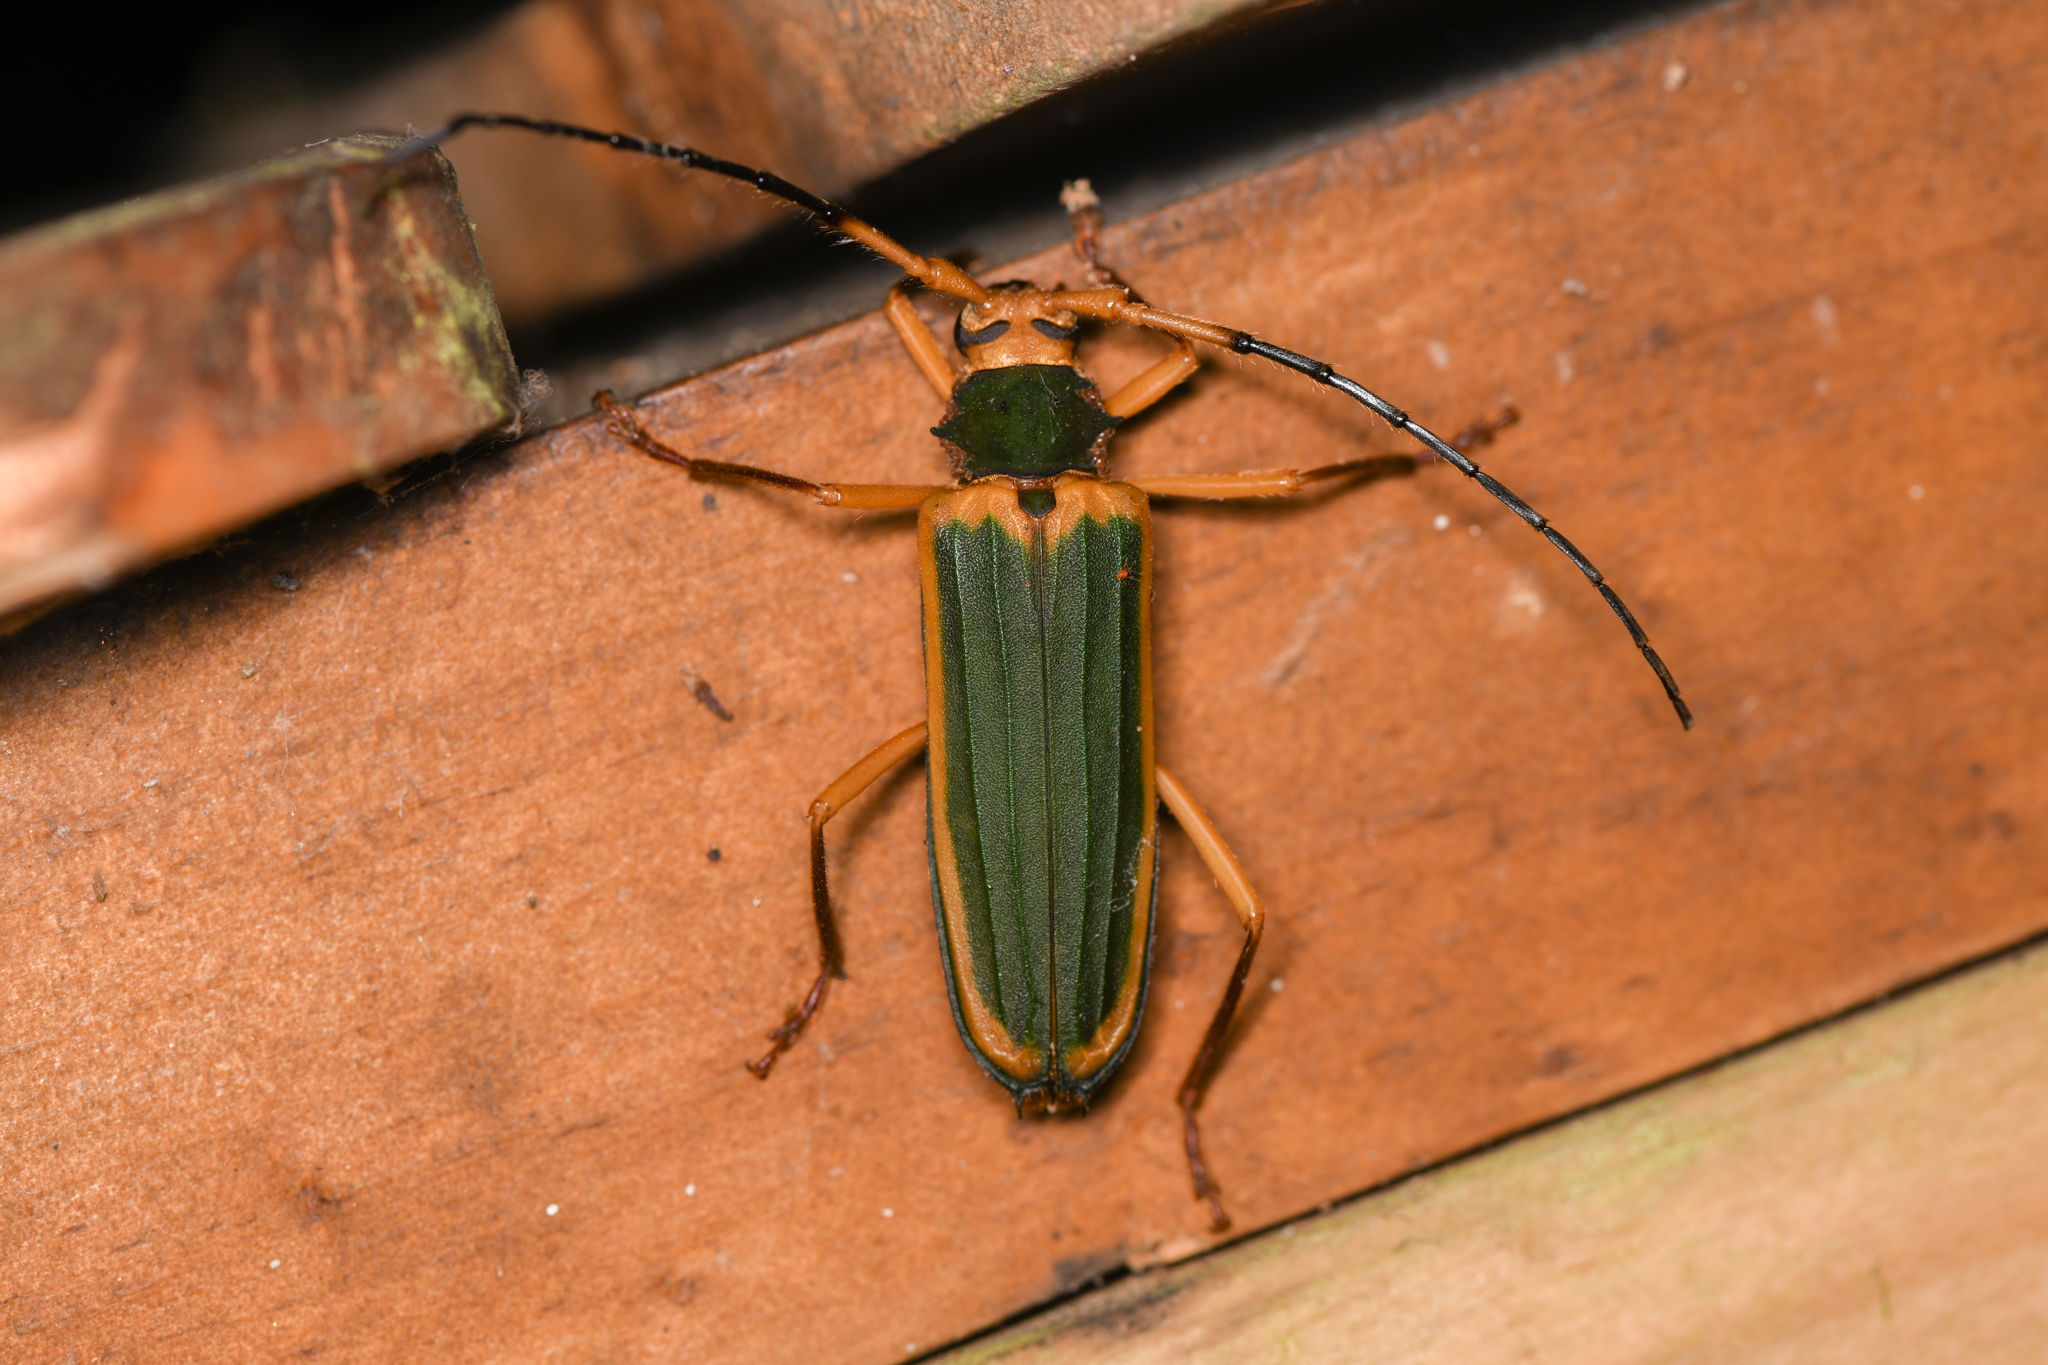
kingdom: Animalia
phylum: Arthropoda
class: Insecta
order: Coleoptera
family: Cerambycidae
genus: Chlorida
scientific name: Chlorida cincta
